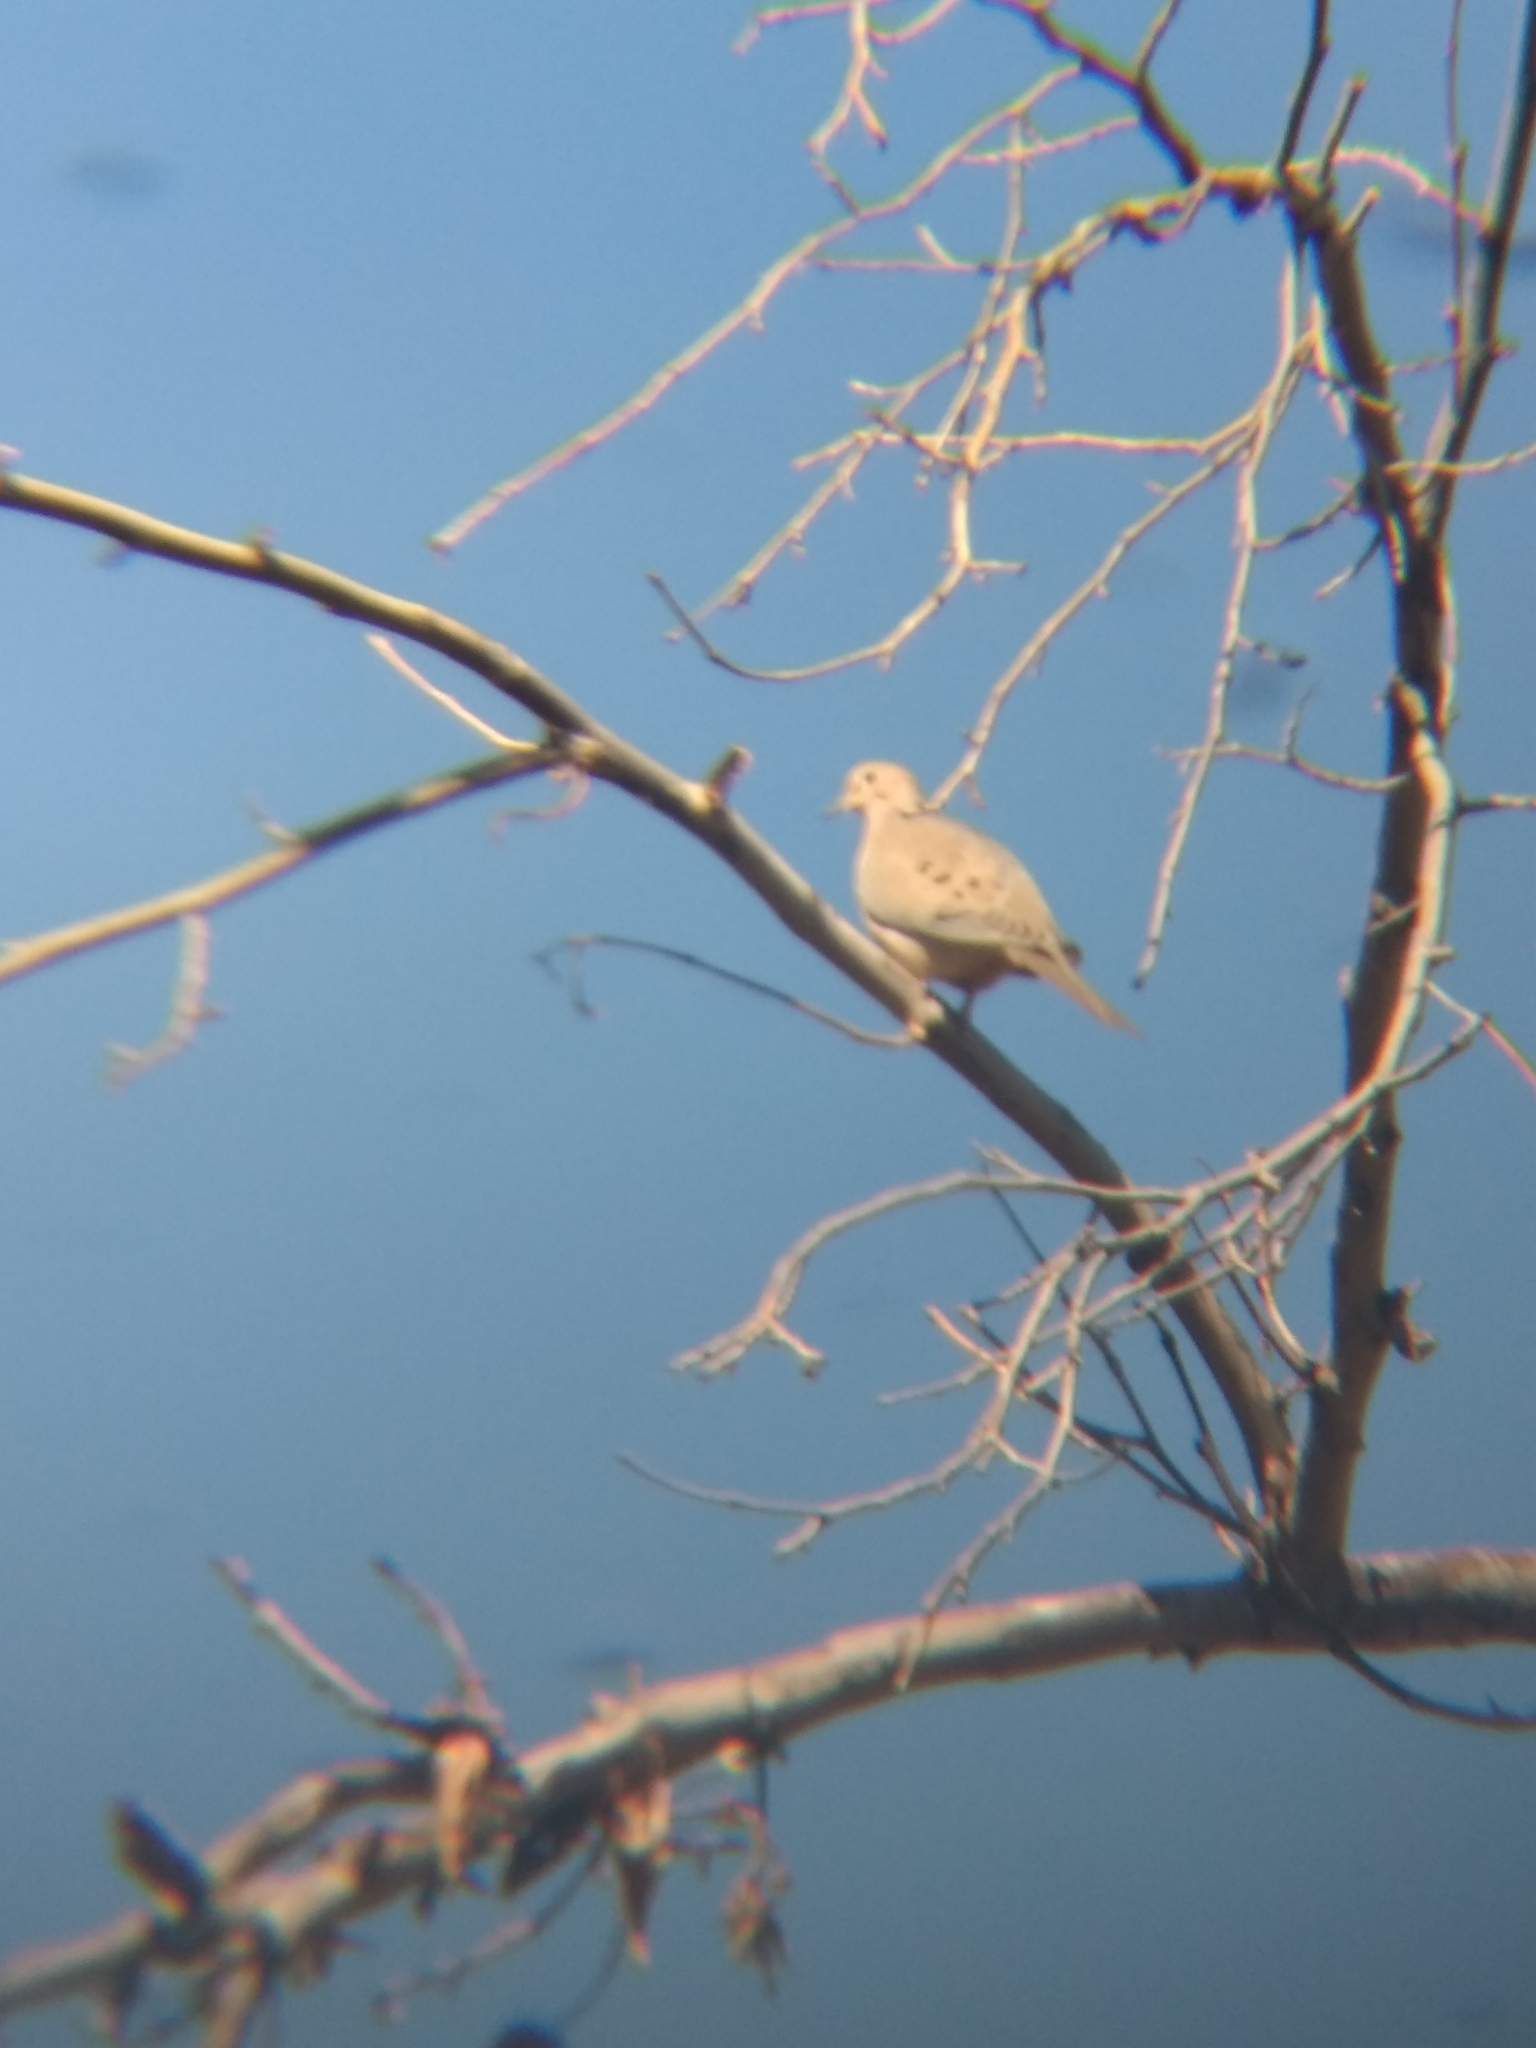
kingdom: Animalia
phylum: Chordata
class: Aves
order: Columbiformes
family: Columbidae
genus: Zenaida
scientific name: Zenaida macroura
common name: Mourning dove
